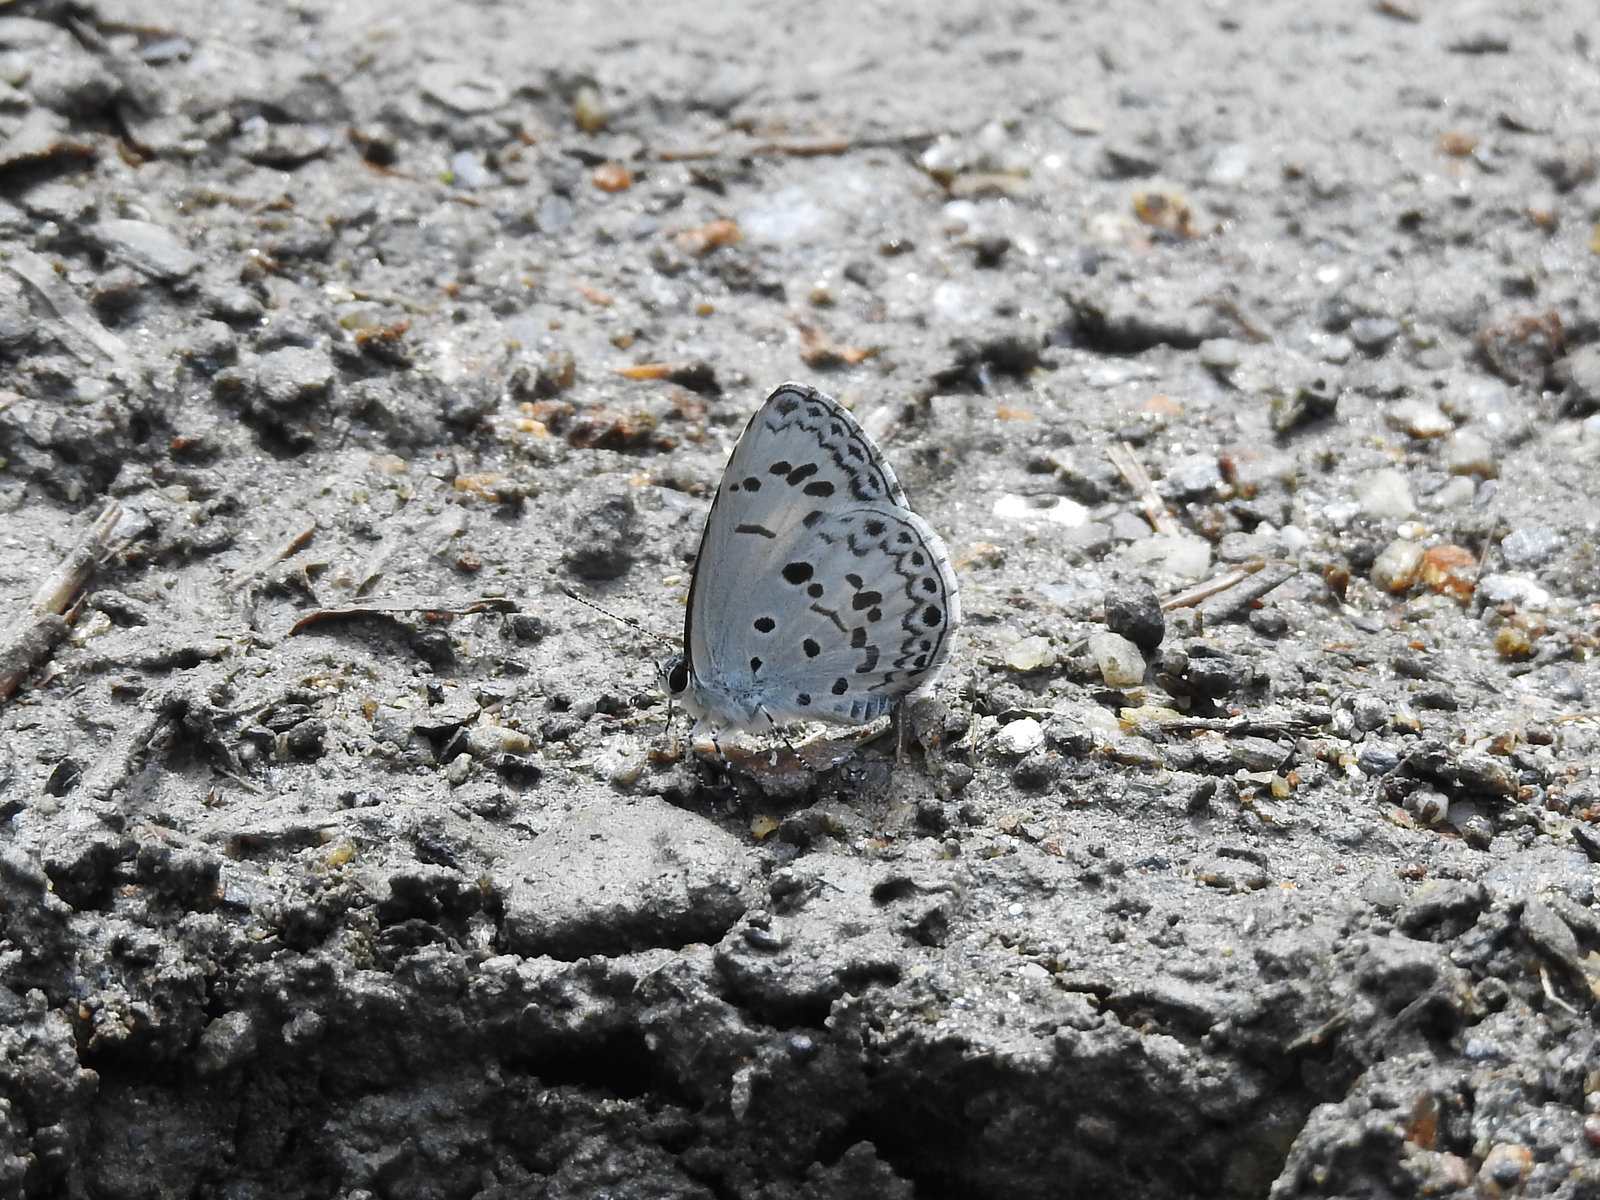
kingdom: Animalia
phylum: Arthropoda
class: Insecta
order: Lepidoptera
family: Lycaenidae
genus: Acytolepis
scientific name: Acytolepis puspa
